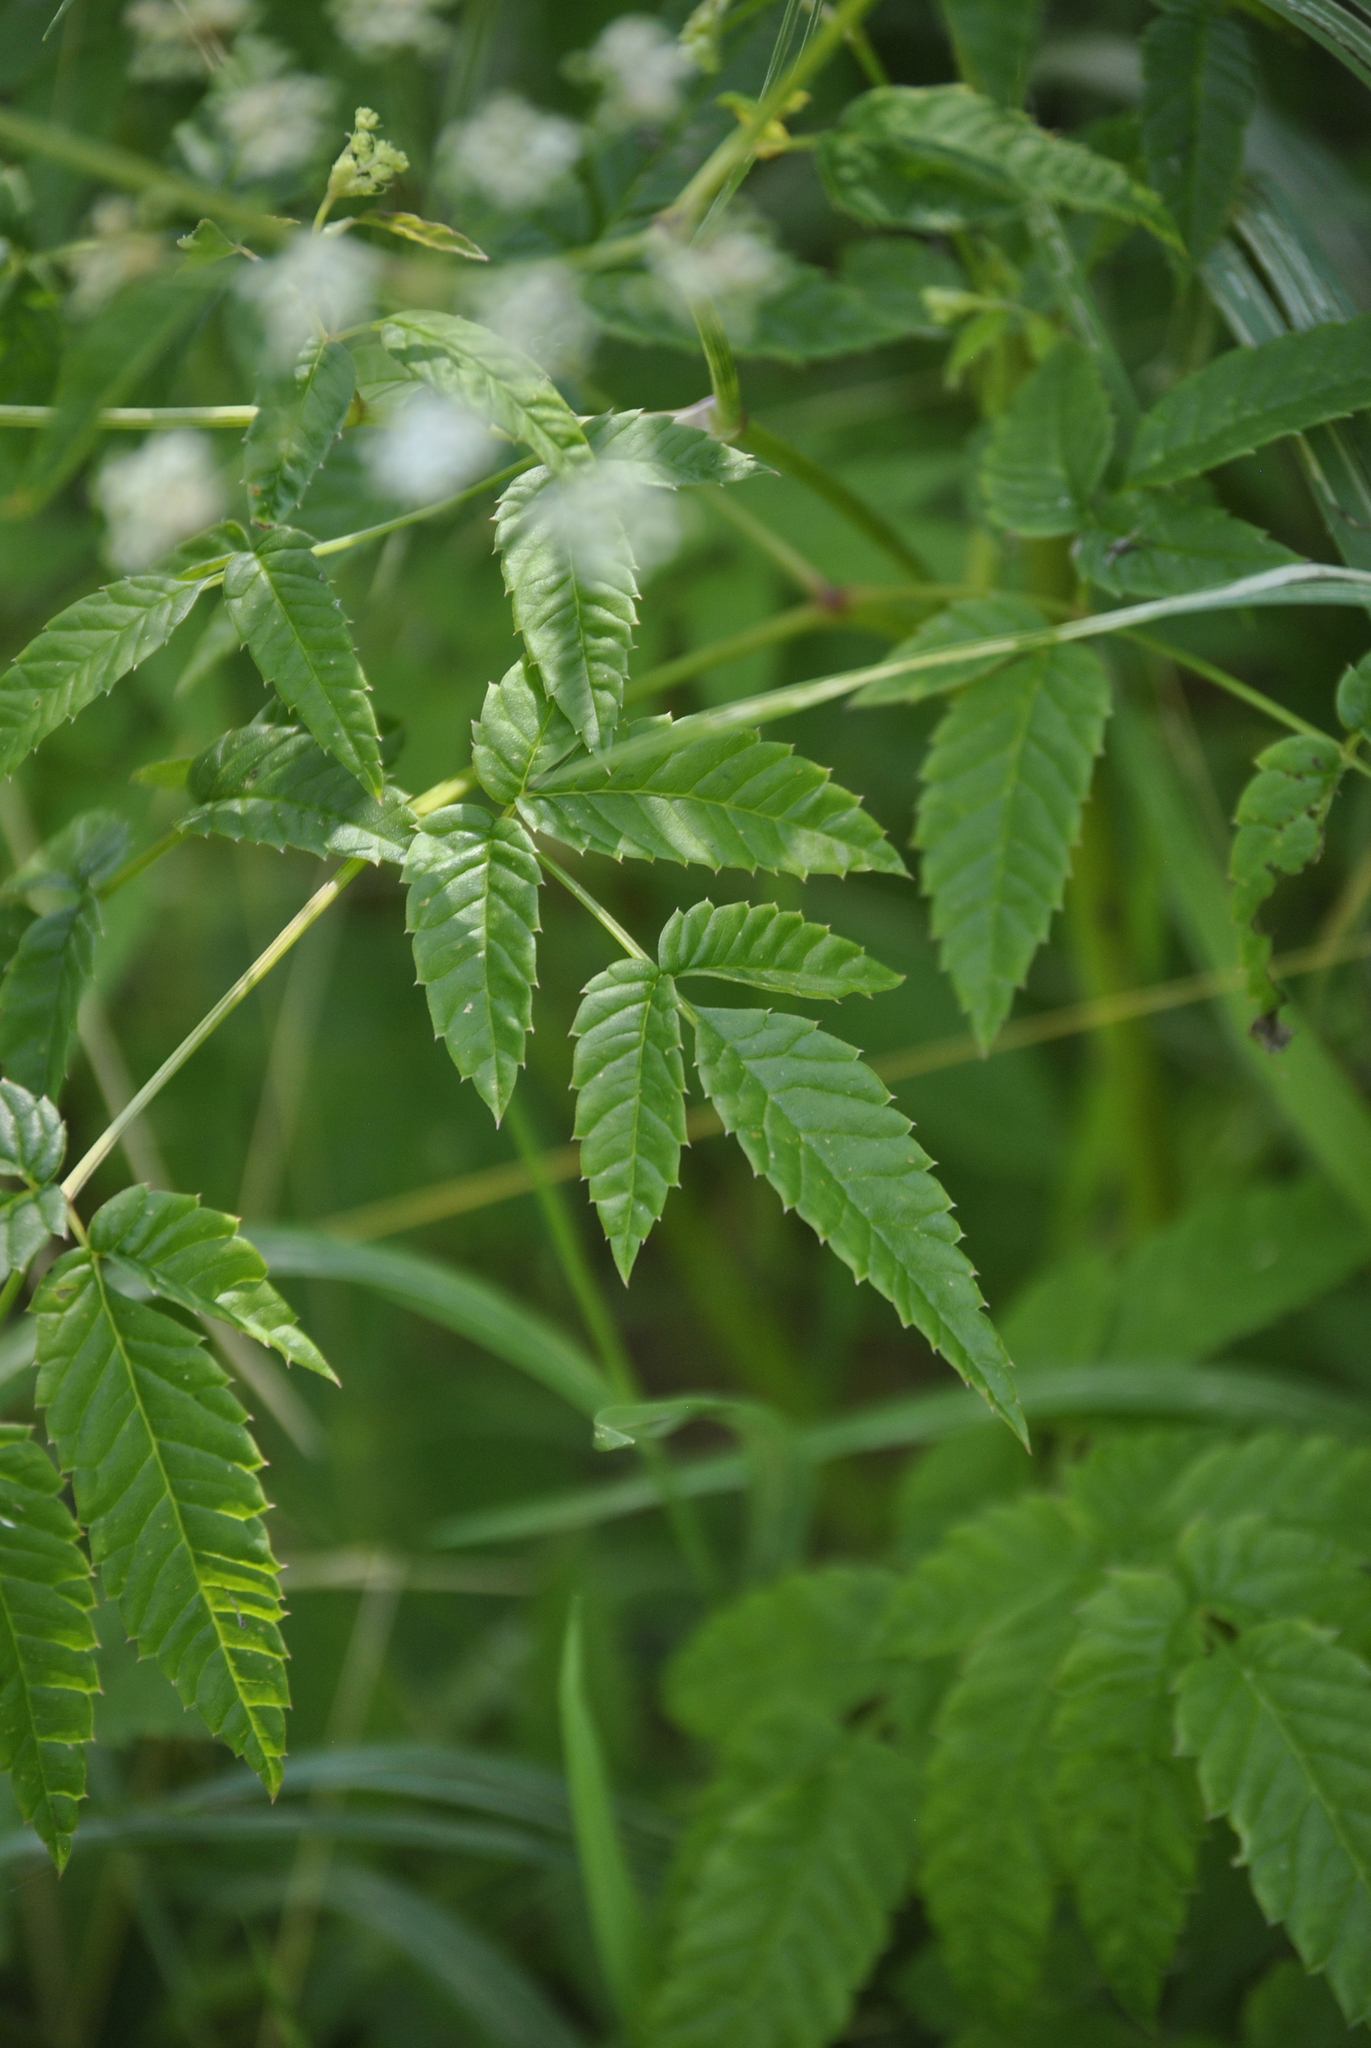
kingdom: Plantae
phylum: Tracheophyta
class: Magnoliopsida
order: Apiales
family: Apiaceae
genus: Cicuta
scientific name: Cicuta maculata
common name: Spotted cowbane
